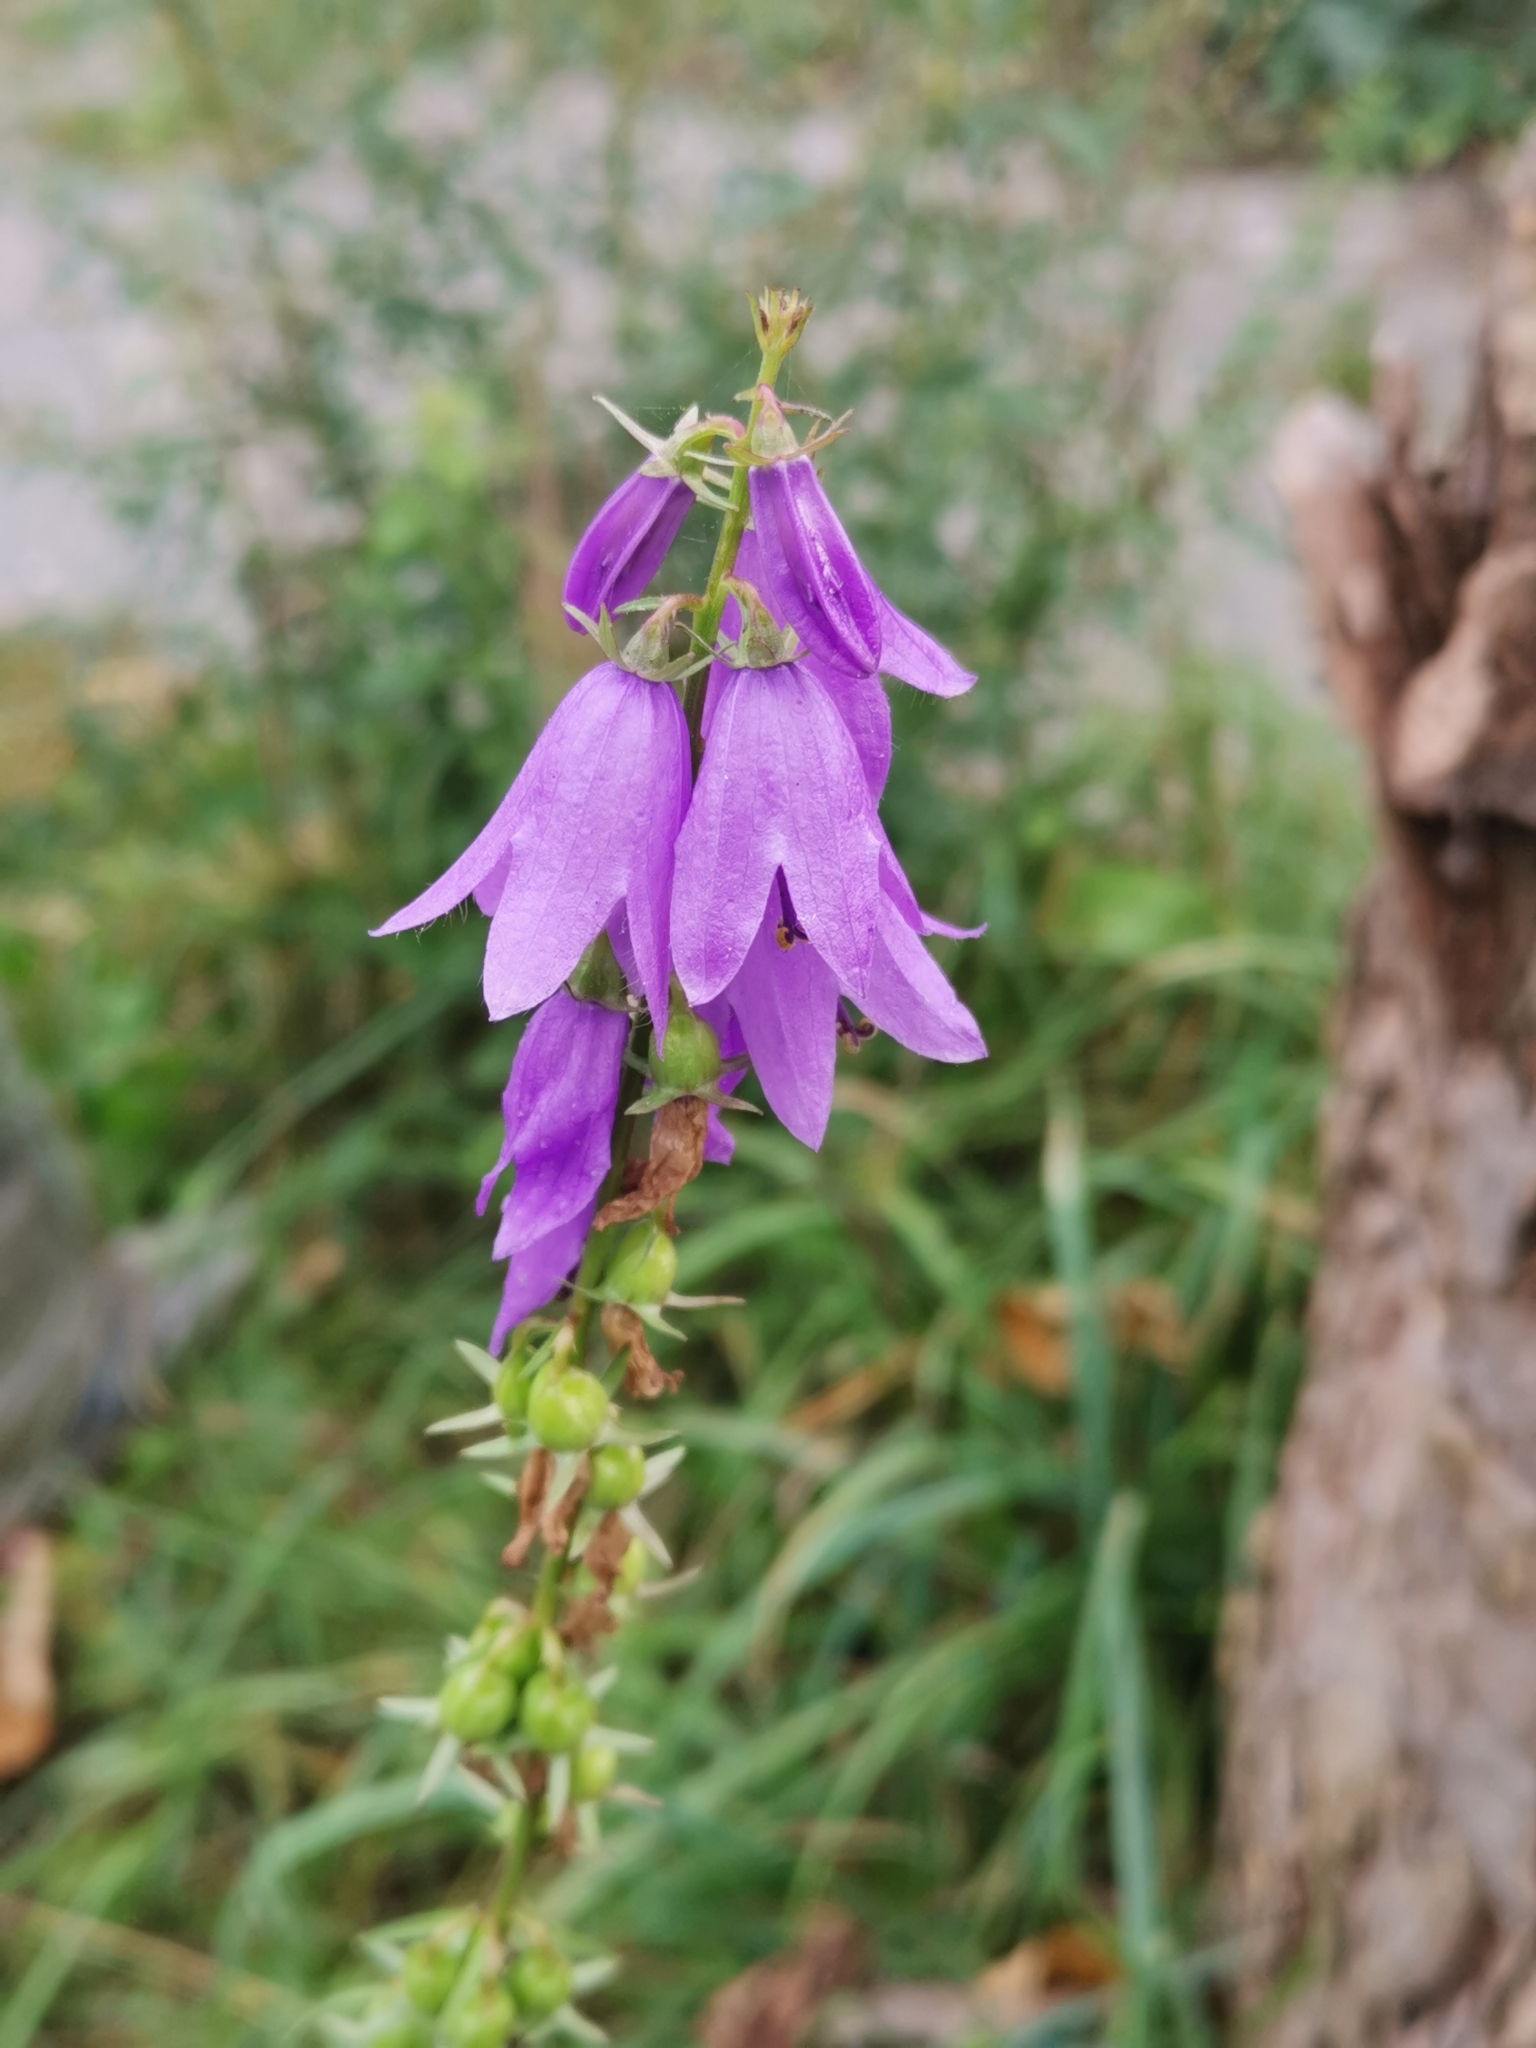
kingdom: Plantae
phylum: Tracheophyta
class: Magnoliopsida
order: Asterales
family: Campanulaceae
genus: Campanula
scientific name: Campanula rapunculoides
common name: Creeping bellflower
